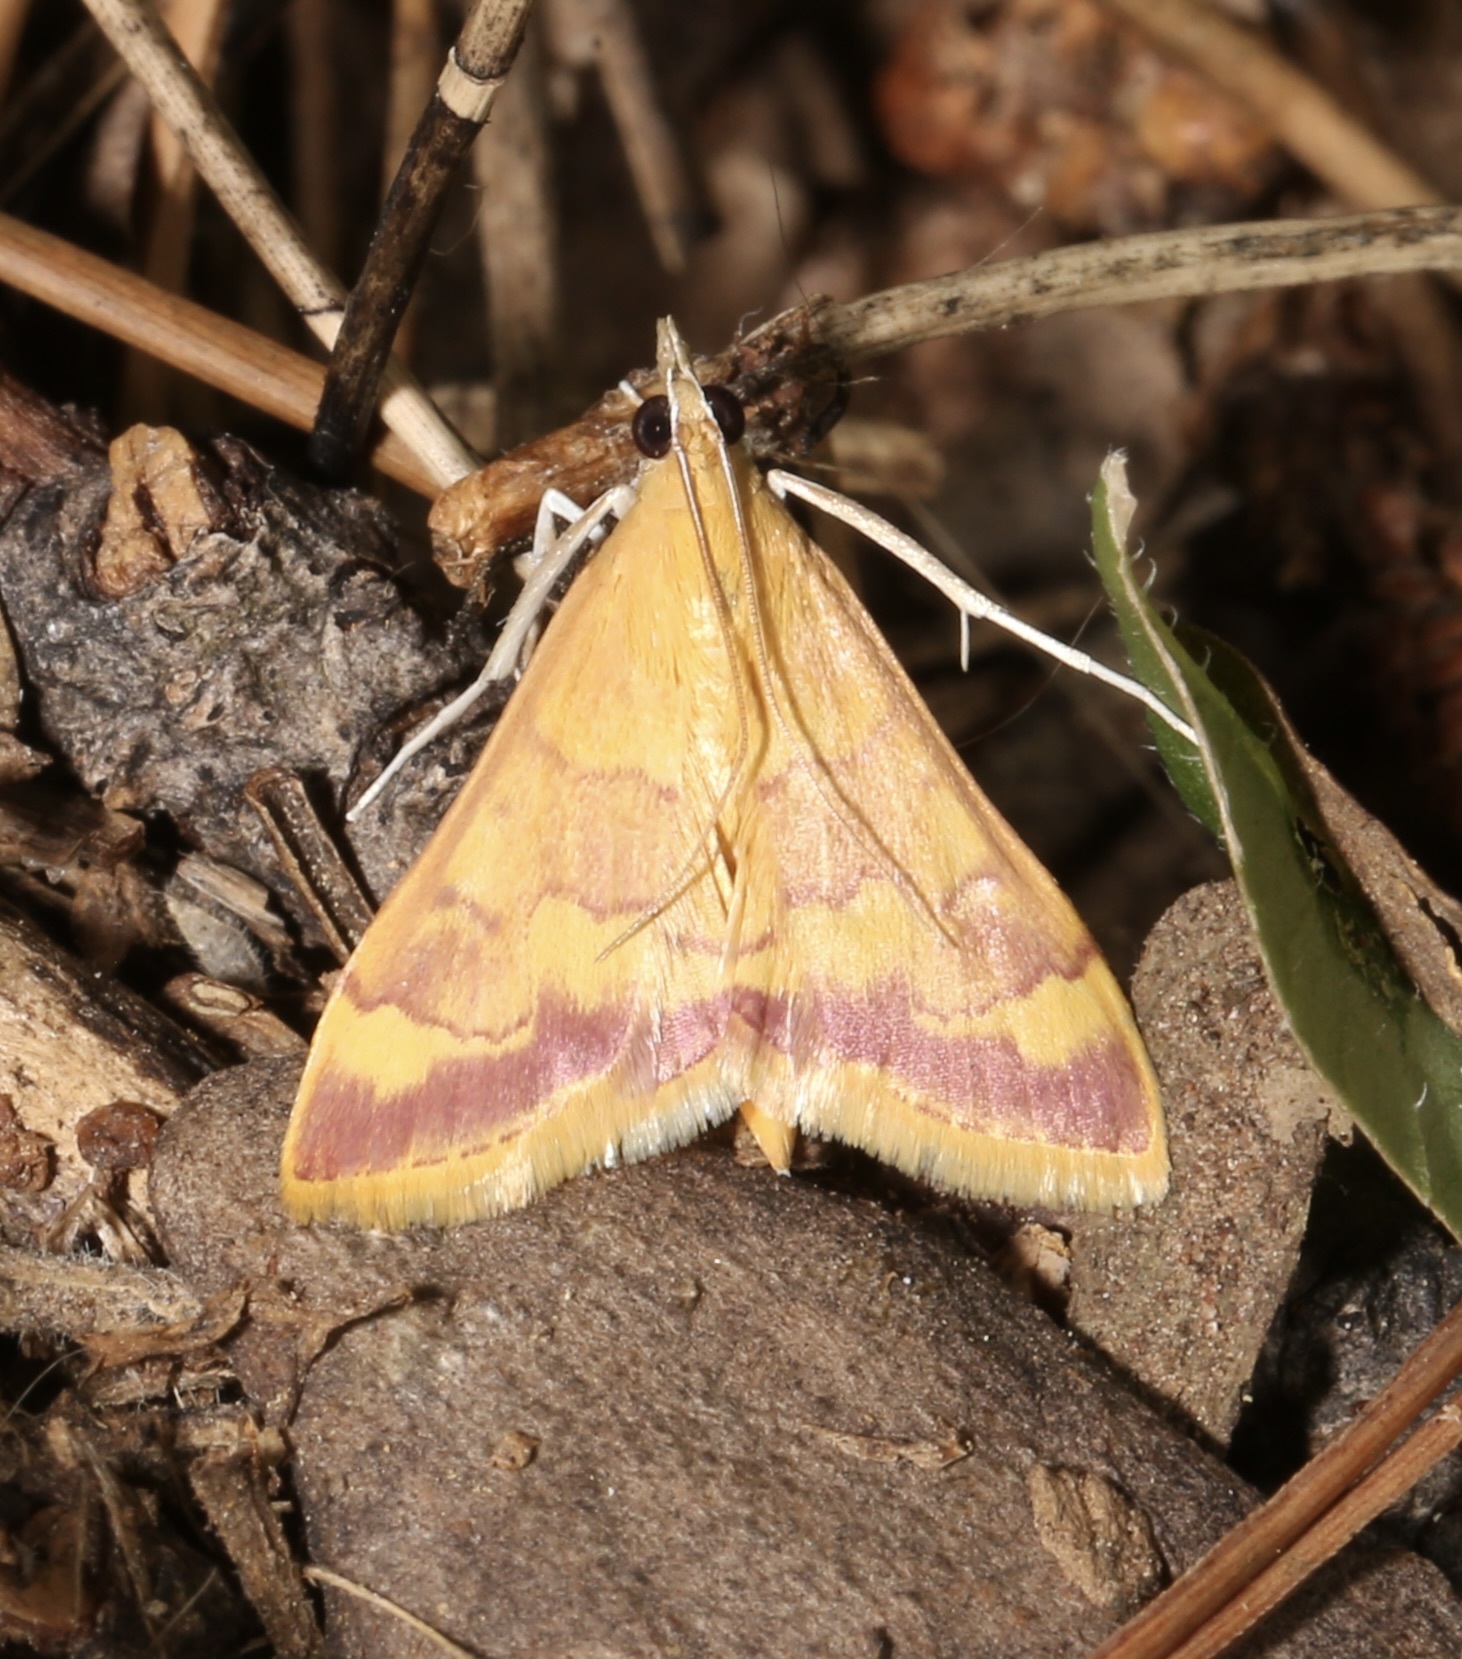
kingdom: Animalia
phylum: Arthropoda
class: Insecta
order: Lepidoptera
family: Crambidae
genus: Pyrausta
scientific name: Pyrausta pseudonythesalis
